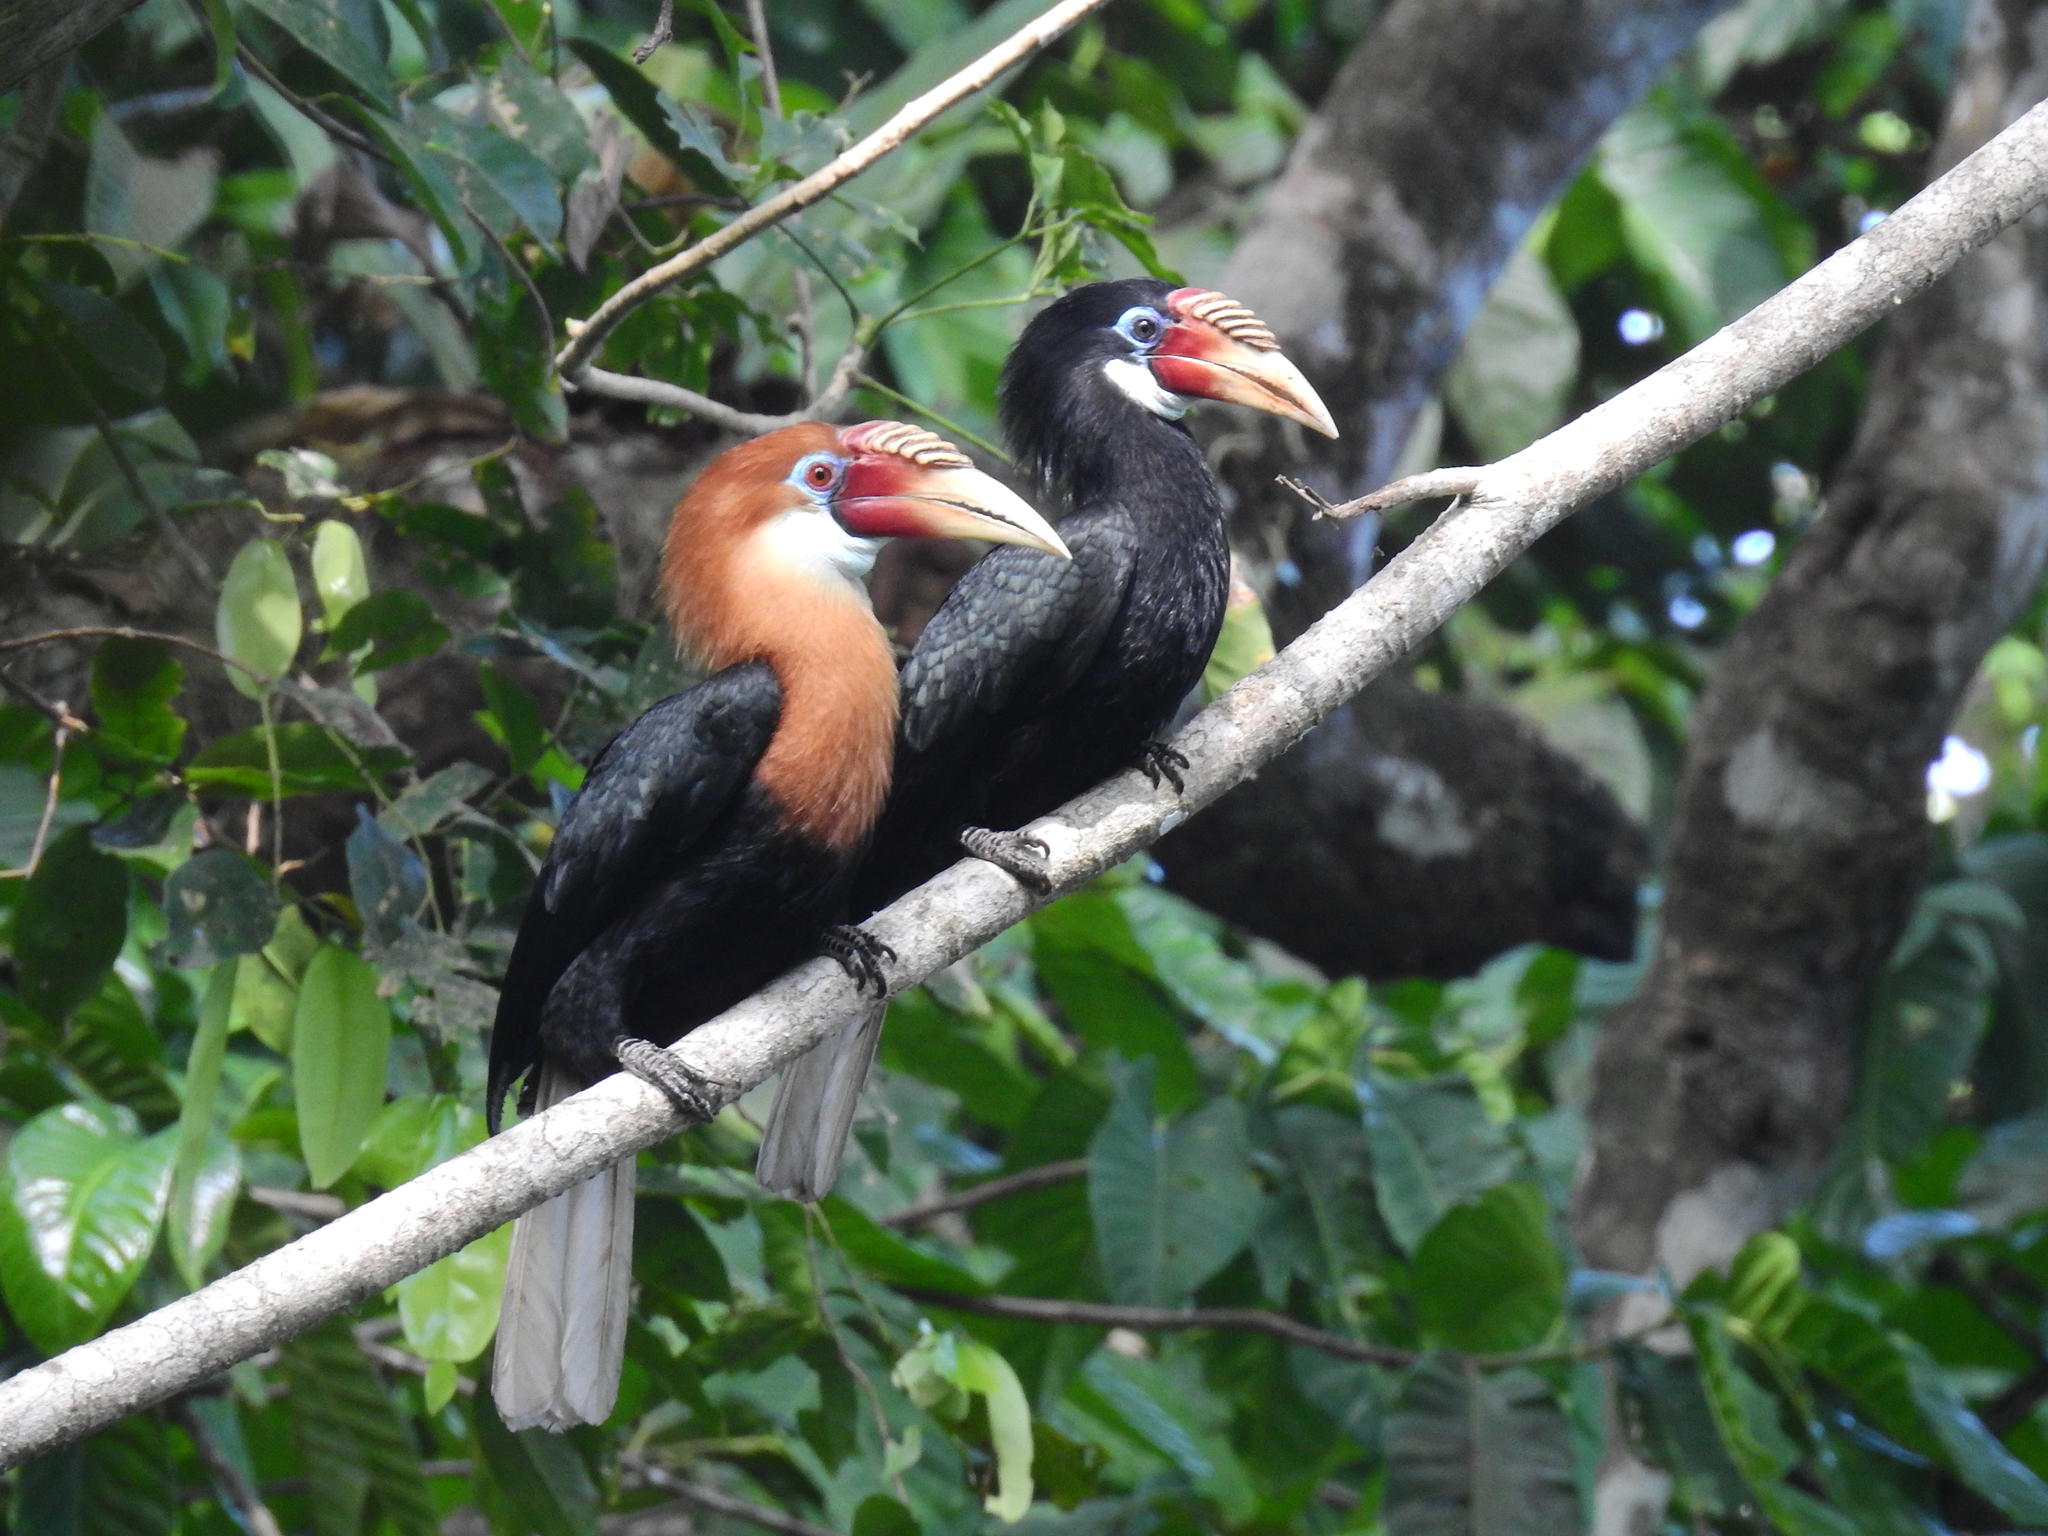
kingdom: Animalia
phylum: Chordata
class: Aves
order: Bucerotiformes
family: Bucerotidae
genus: Rhyticeros
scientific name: Rhyticeros narcondami
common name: Narcondam hornbill
